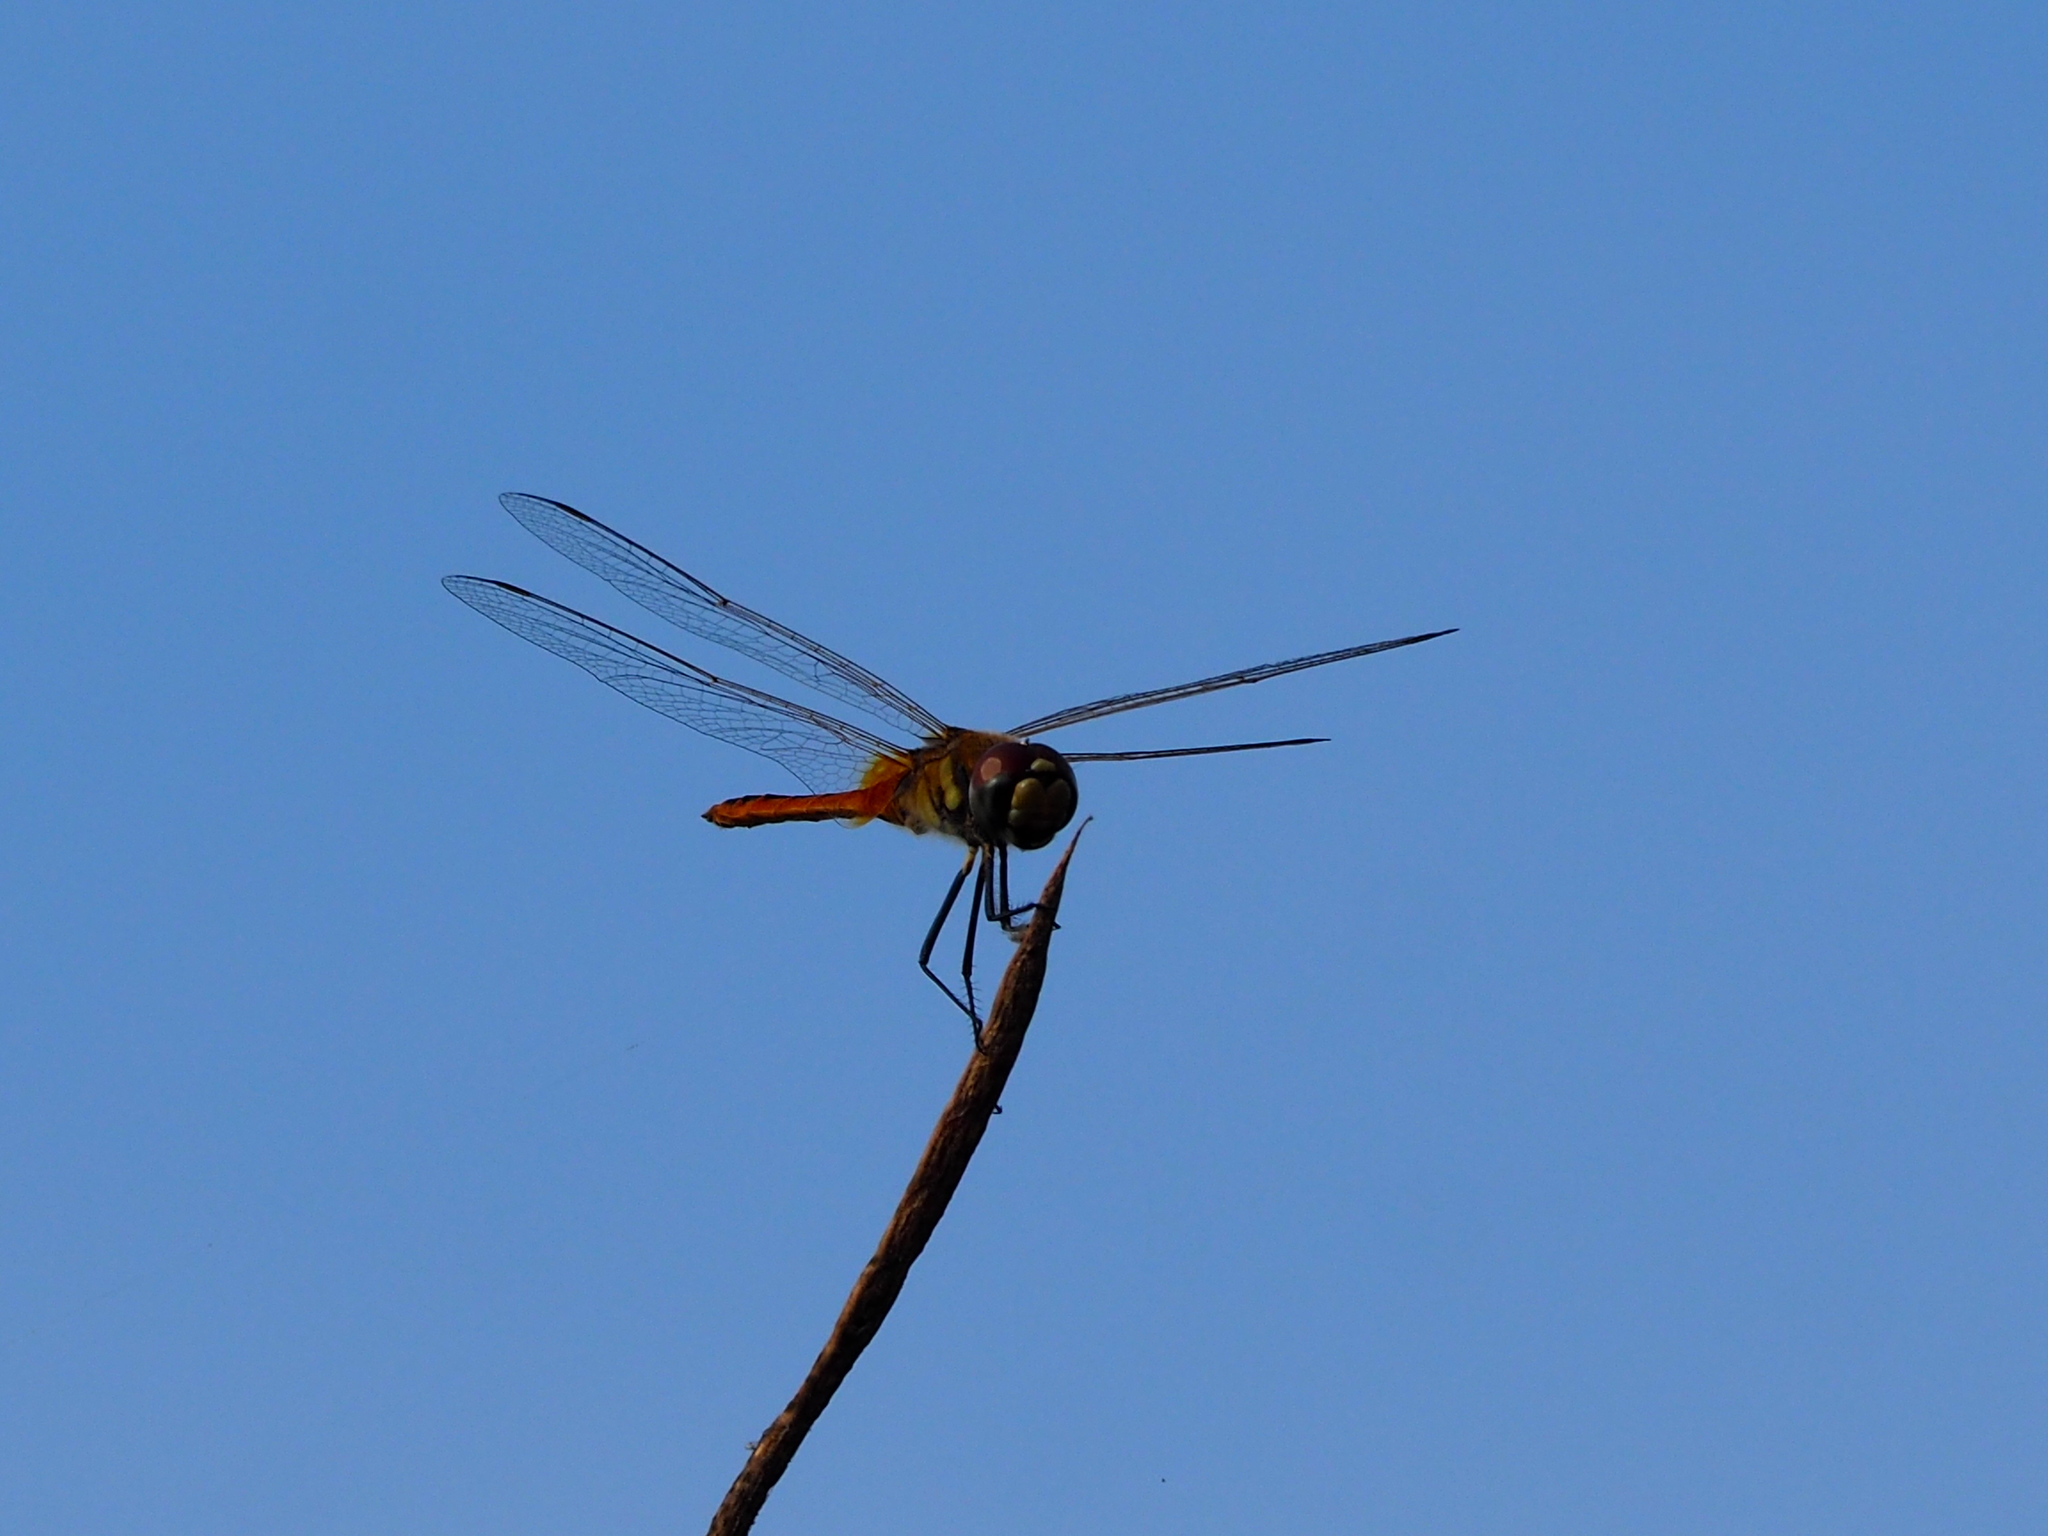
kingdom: Animalia
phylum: Arthropoda
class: Insecta
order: Odonata
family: Libellulidae
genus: Macrodiplax
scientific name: Macrodiplax cora
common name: Coastal glider
